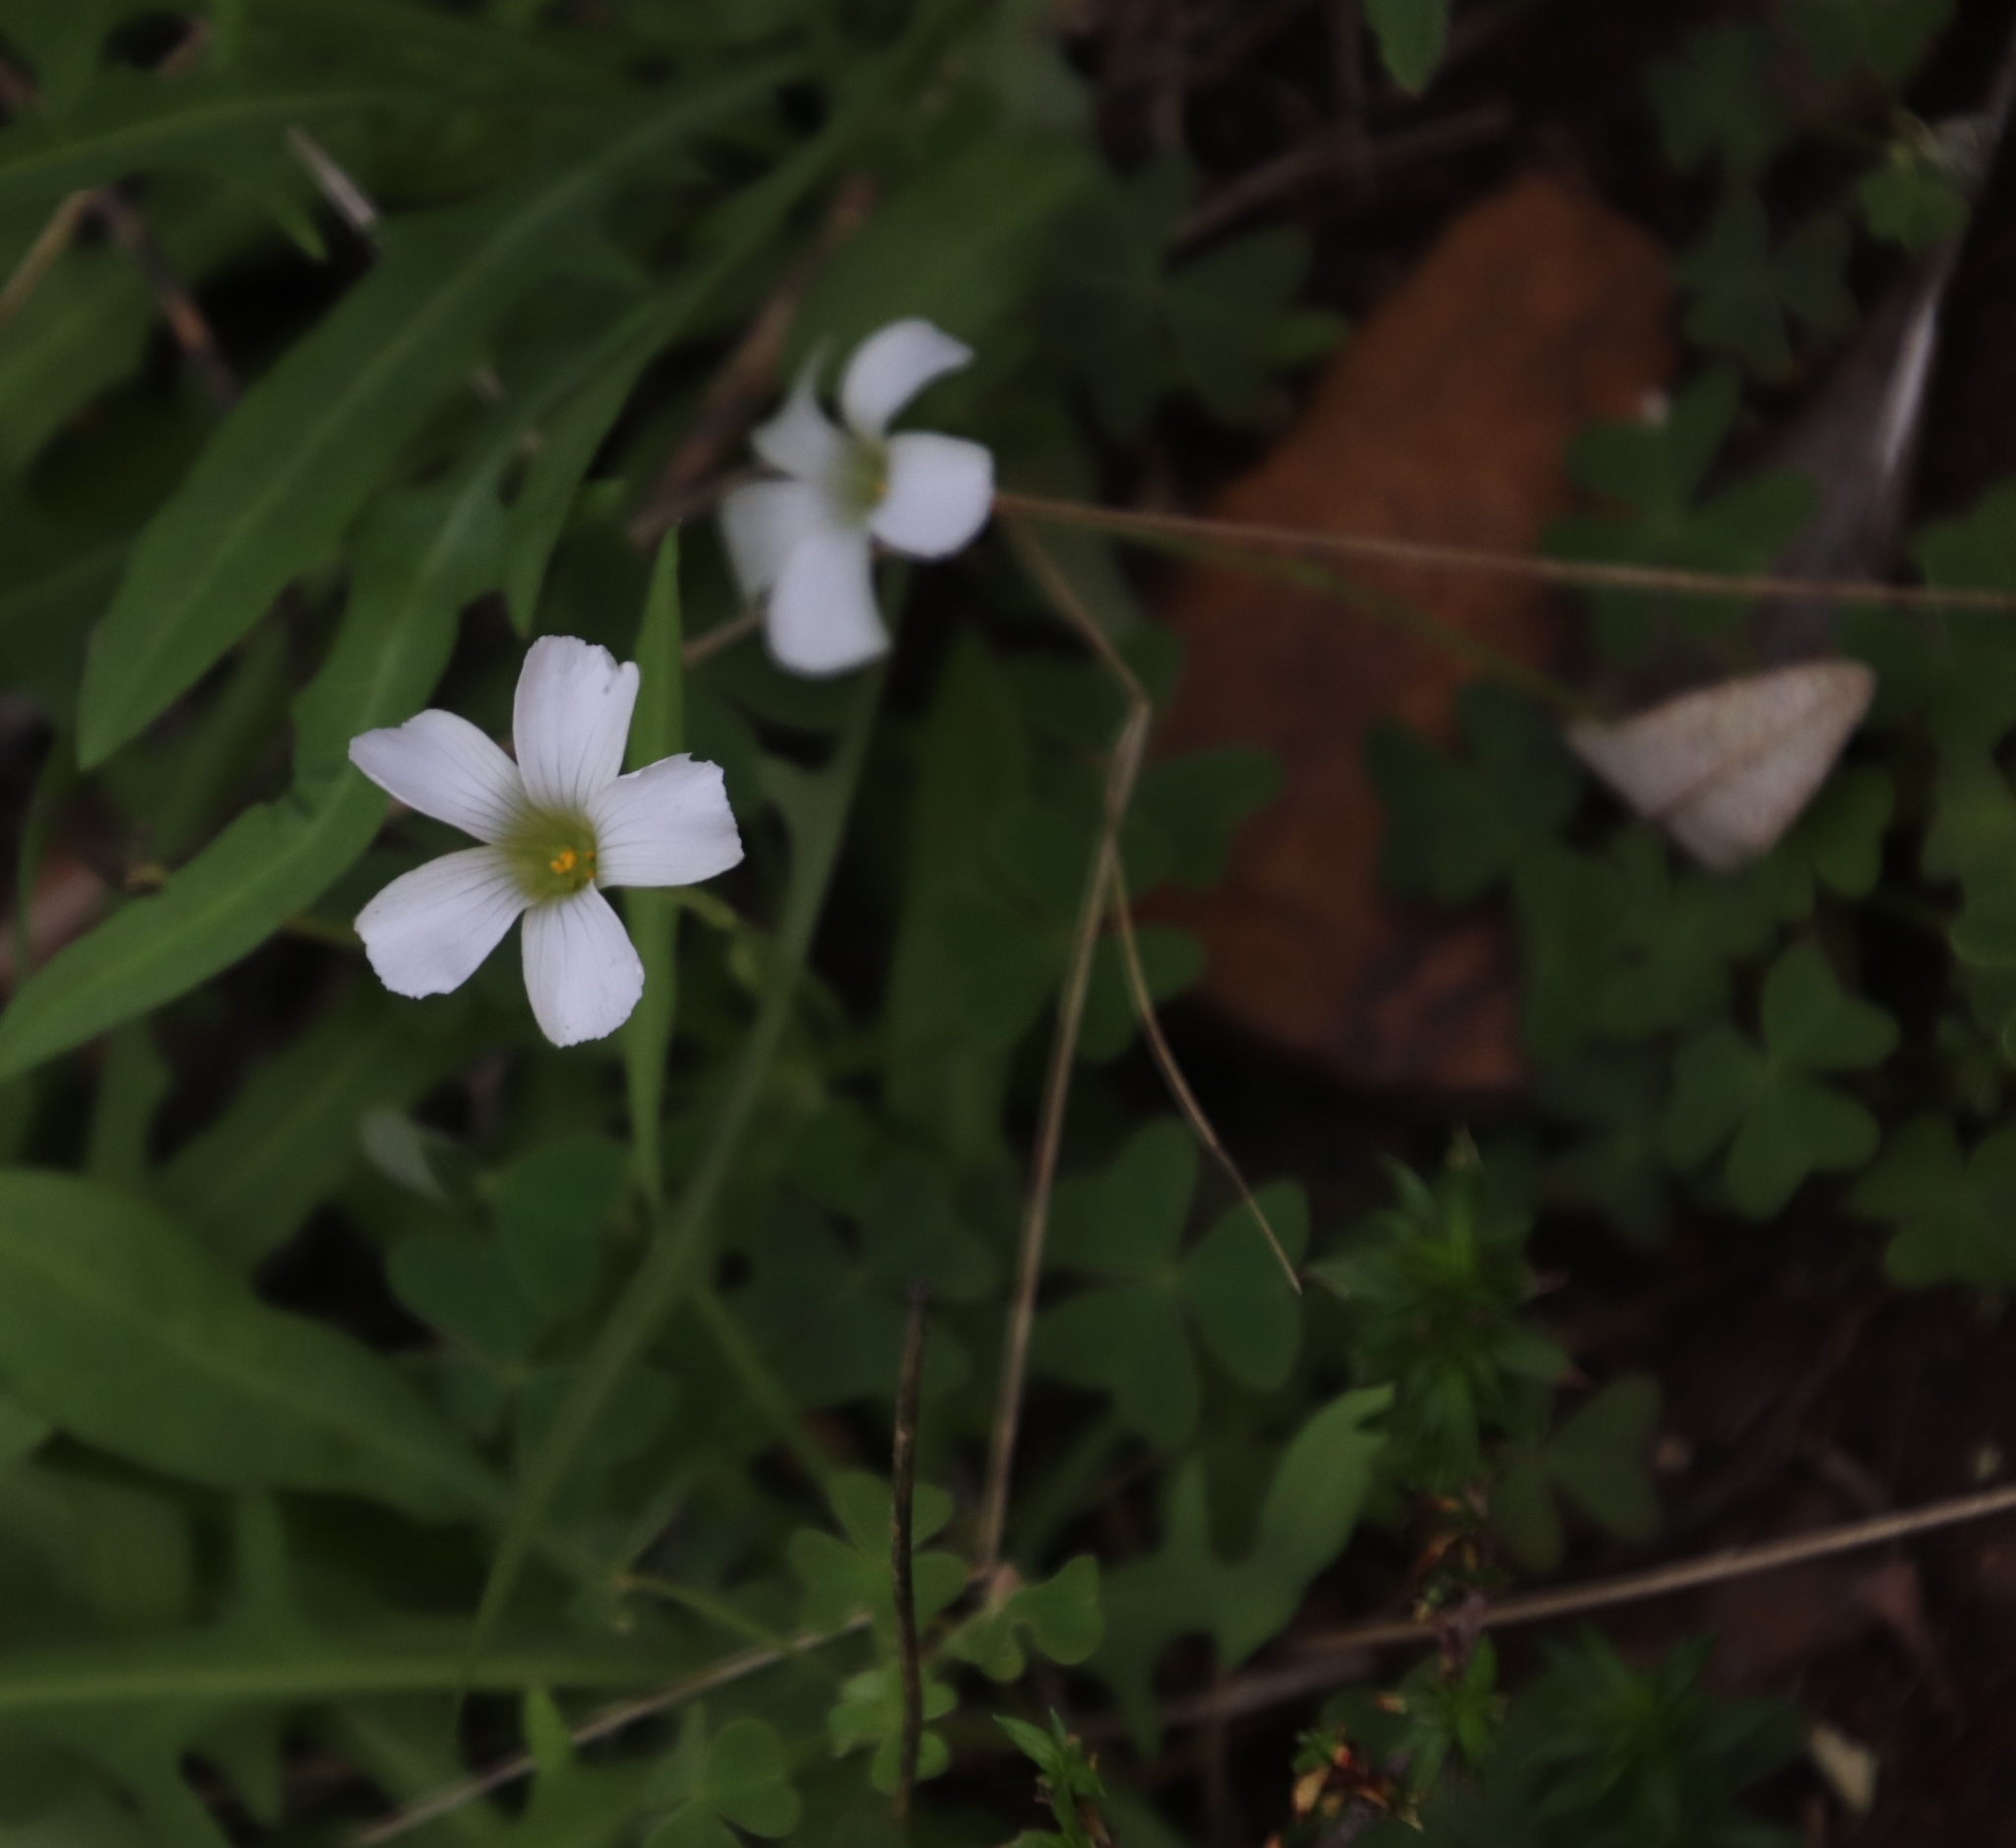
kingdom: Plantae
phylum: Tracheophyta
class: Magnoliopsida
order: Oxalidales
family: Oxalidaceae
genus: Oxalis
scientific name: Oxalis lanata
